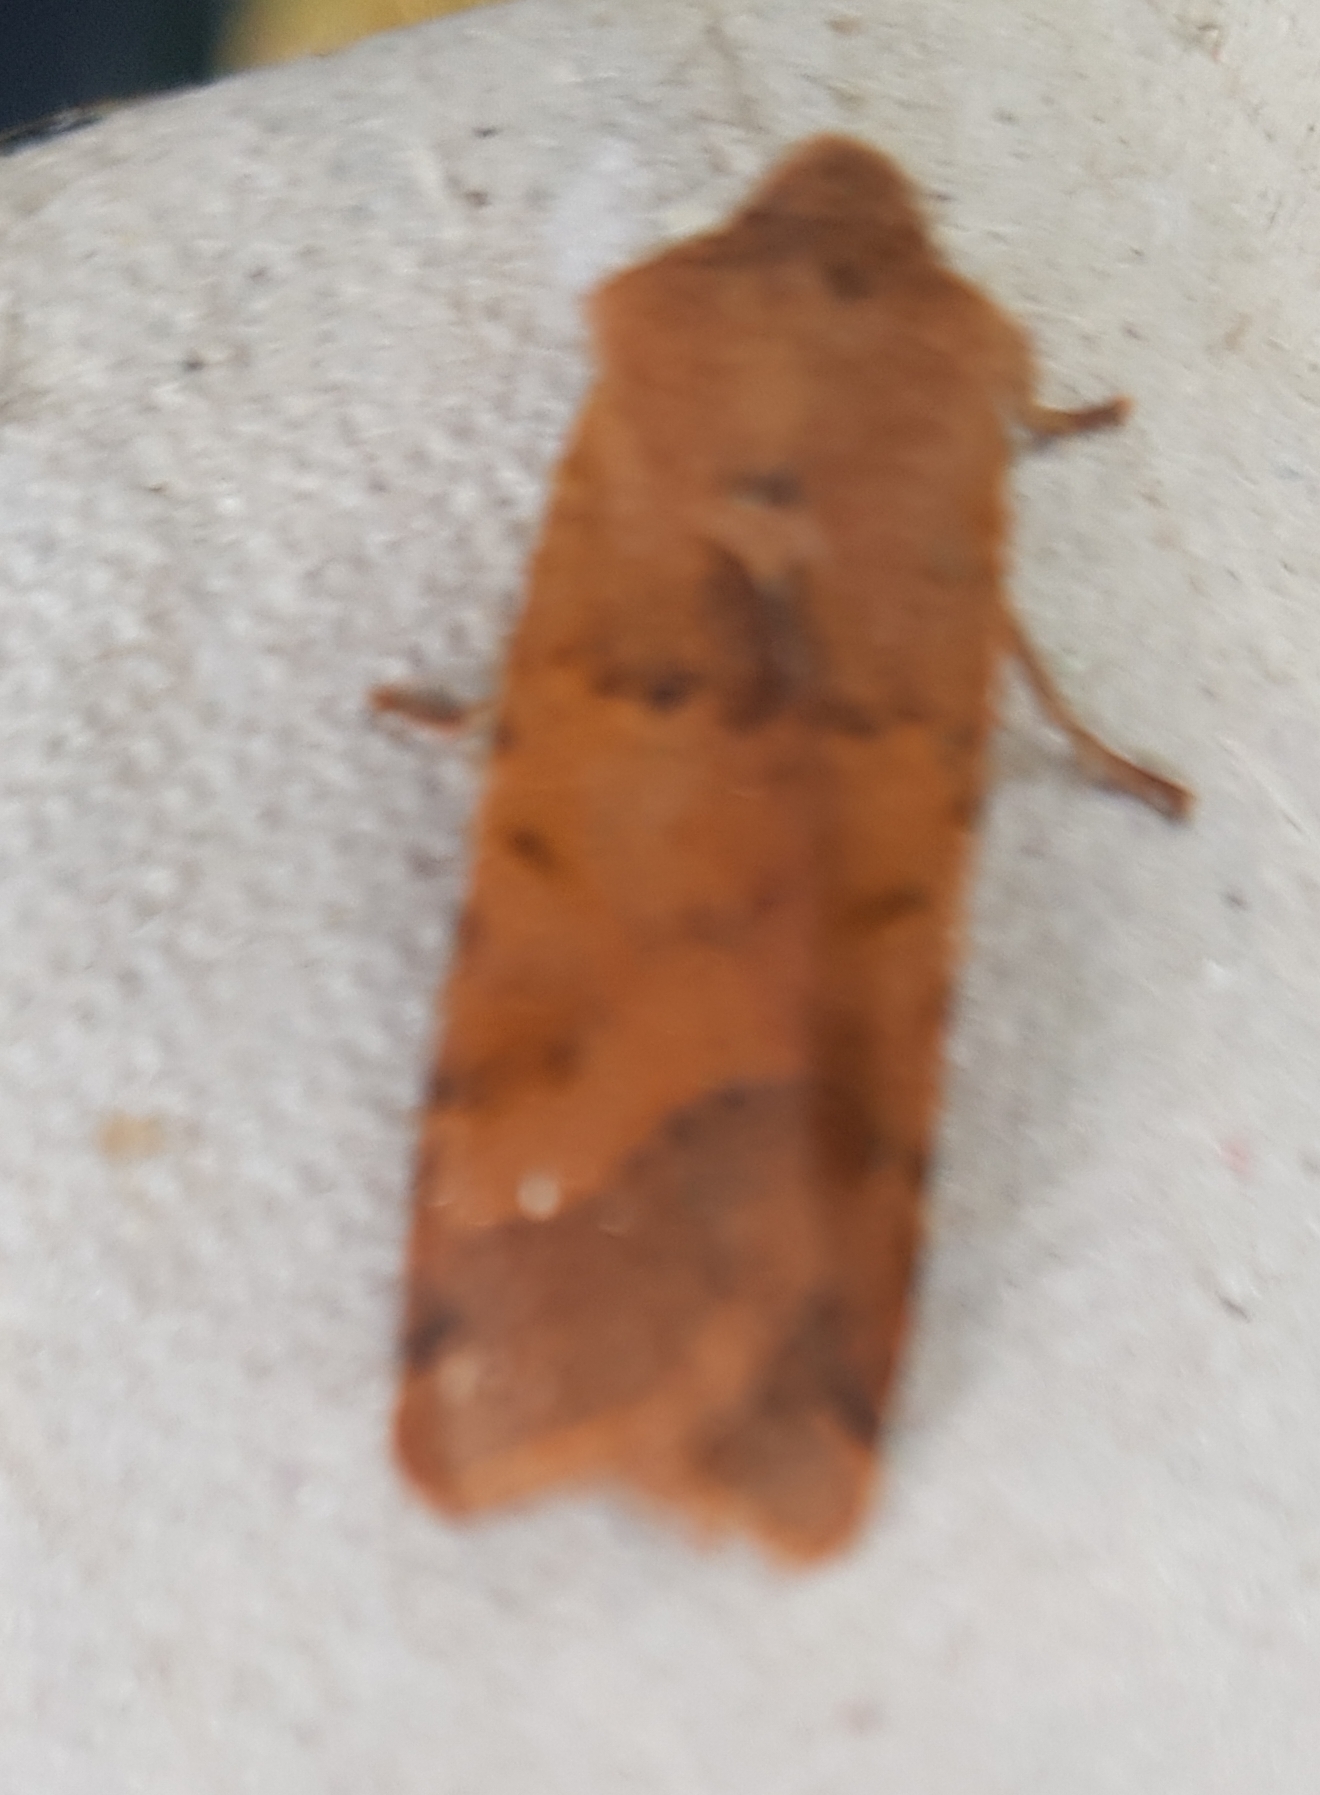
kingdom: Animalia
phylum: Arthropoda
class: Insecta
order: Lepidoptera
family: Noctuidae
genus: Agrochola
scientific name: Agrochola lychnidis
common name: Beaded chestnut
